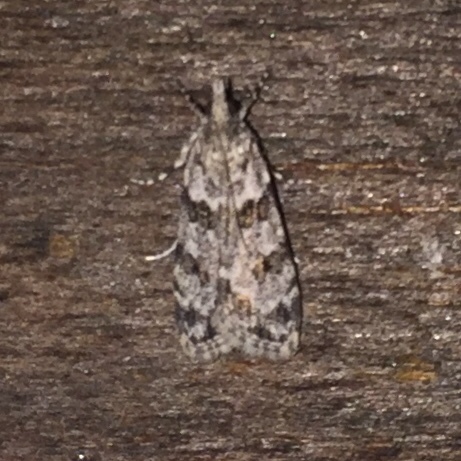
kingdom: Animalia
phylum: Arthropoda
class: Insecta
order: Lepidoptera
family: Crambidae
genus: Scoparia
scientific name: Scoparia biplagialis
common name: Double-striped scoparia moth
